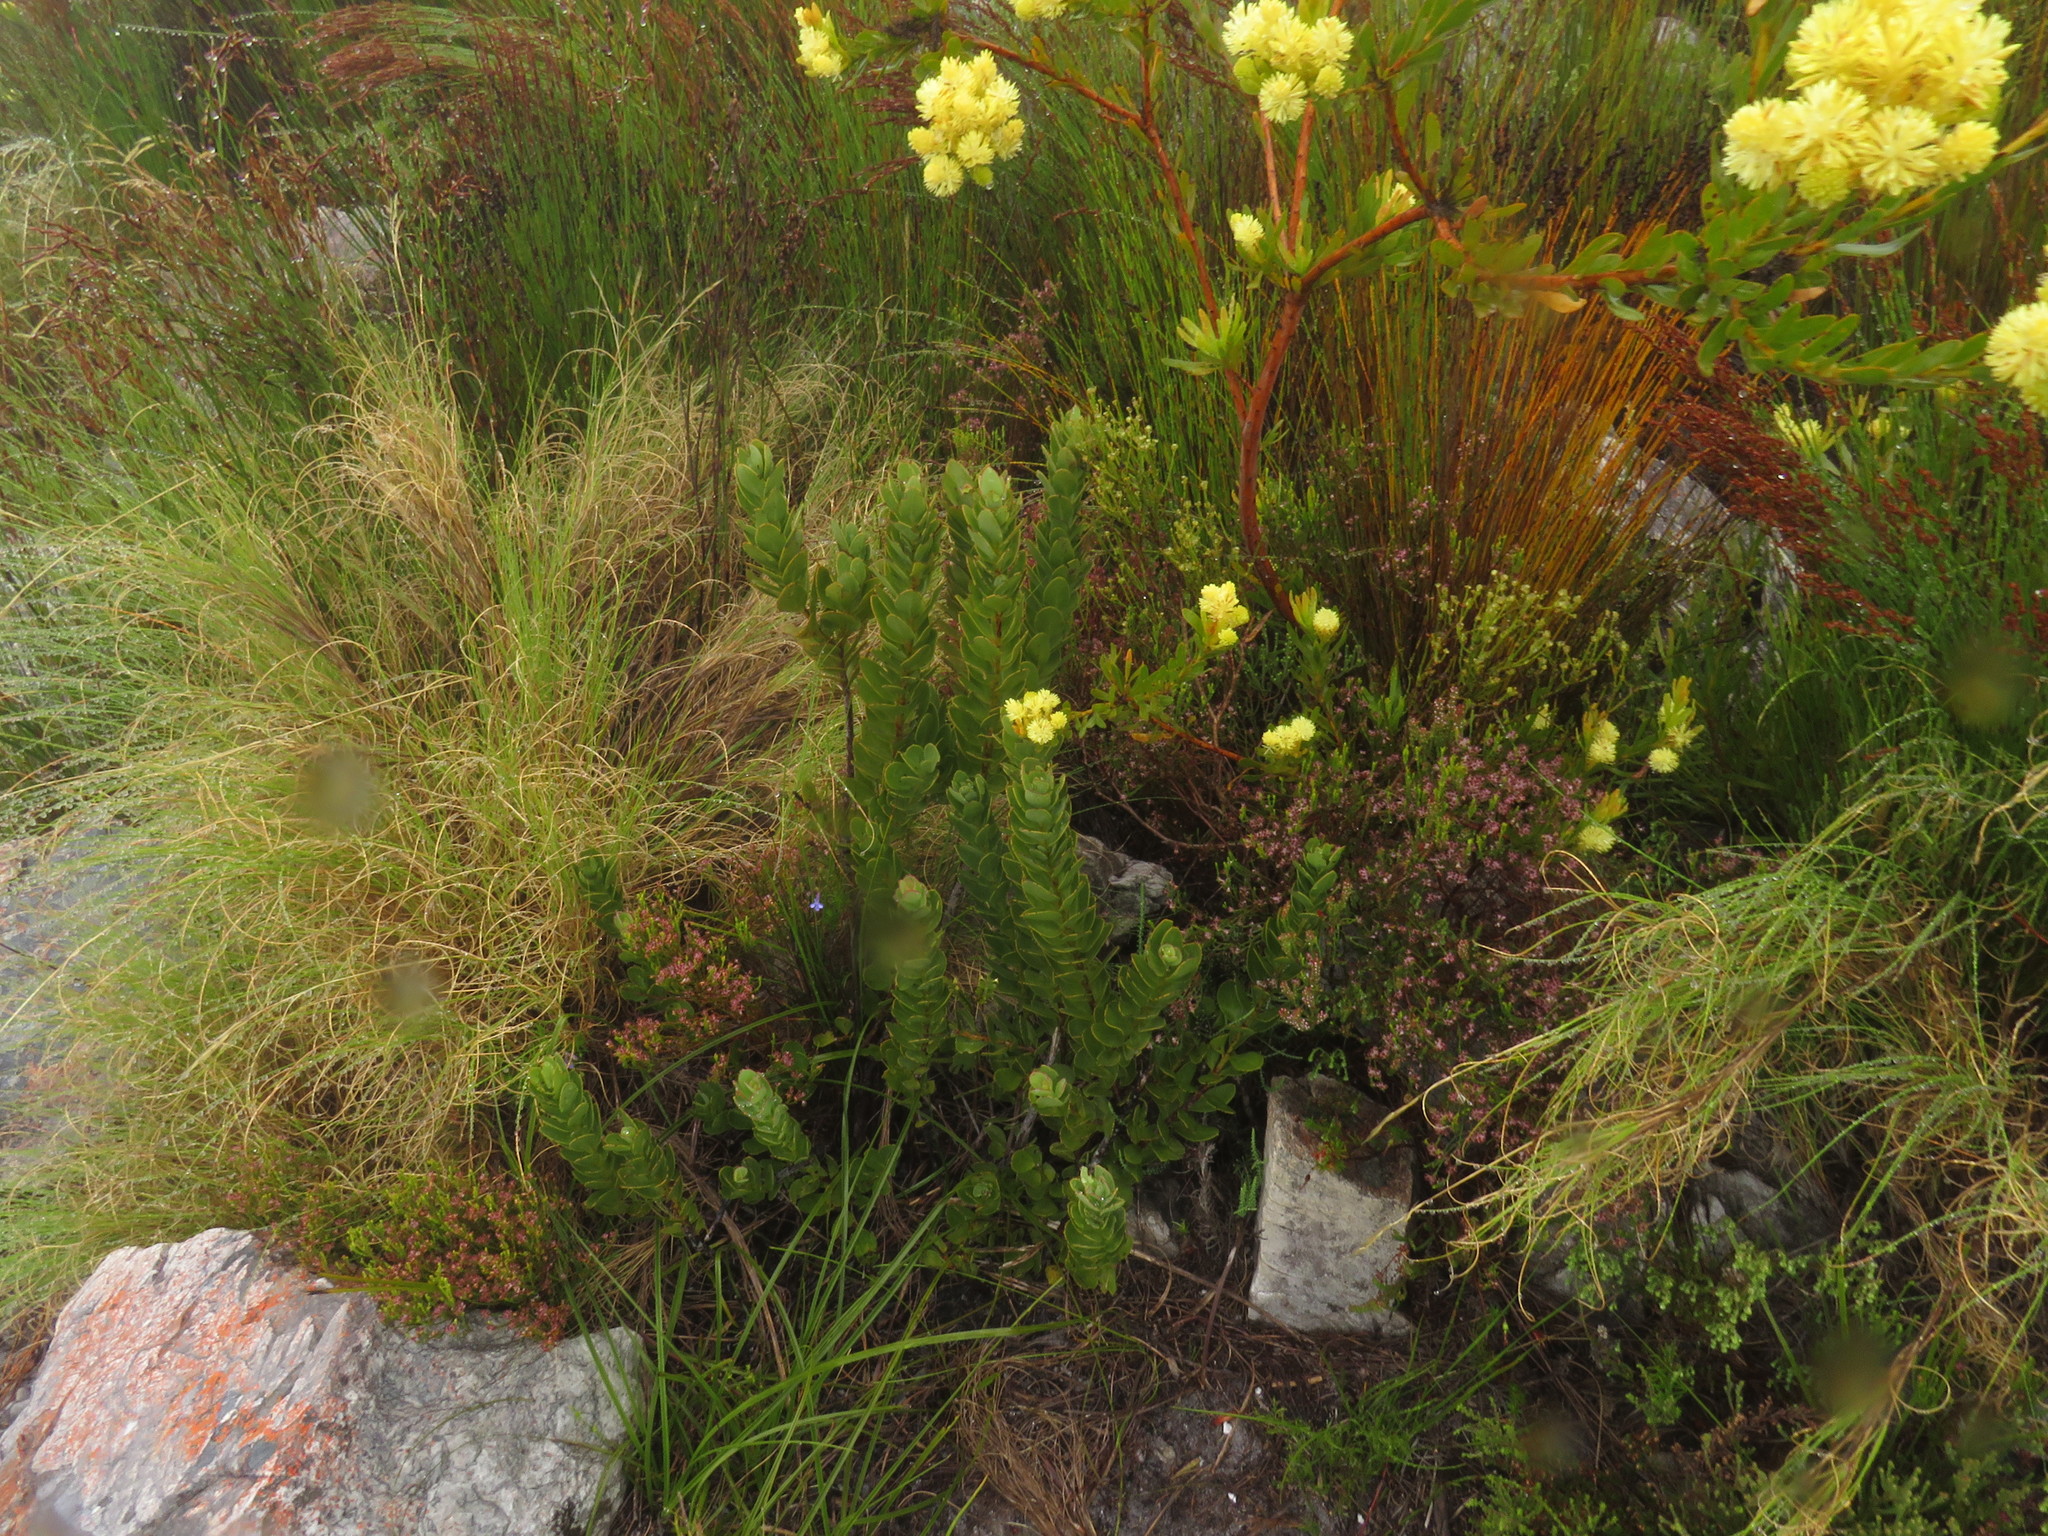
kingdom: Plantae
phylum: Tracheophyta
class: Magnoliopsida
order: Santalales
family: Santalaceae
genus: Osyris
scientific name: Osyris speciosa
